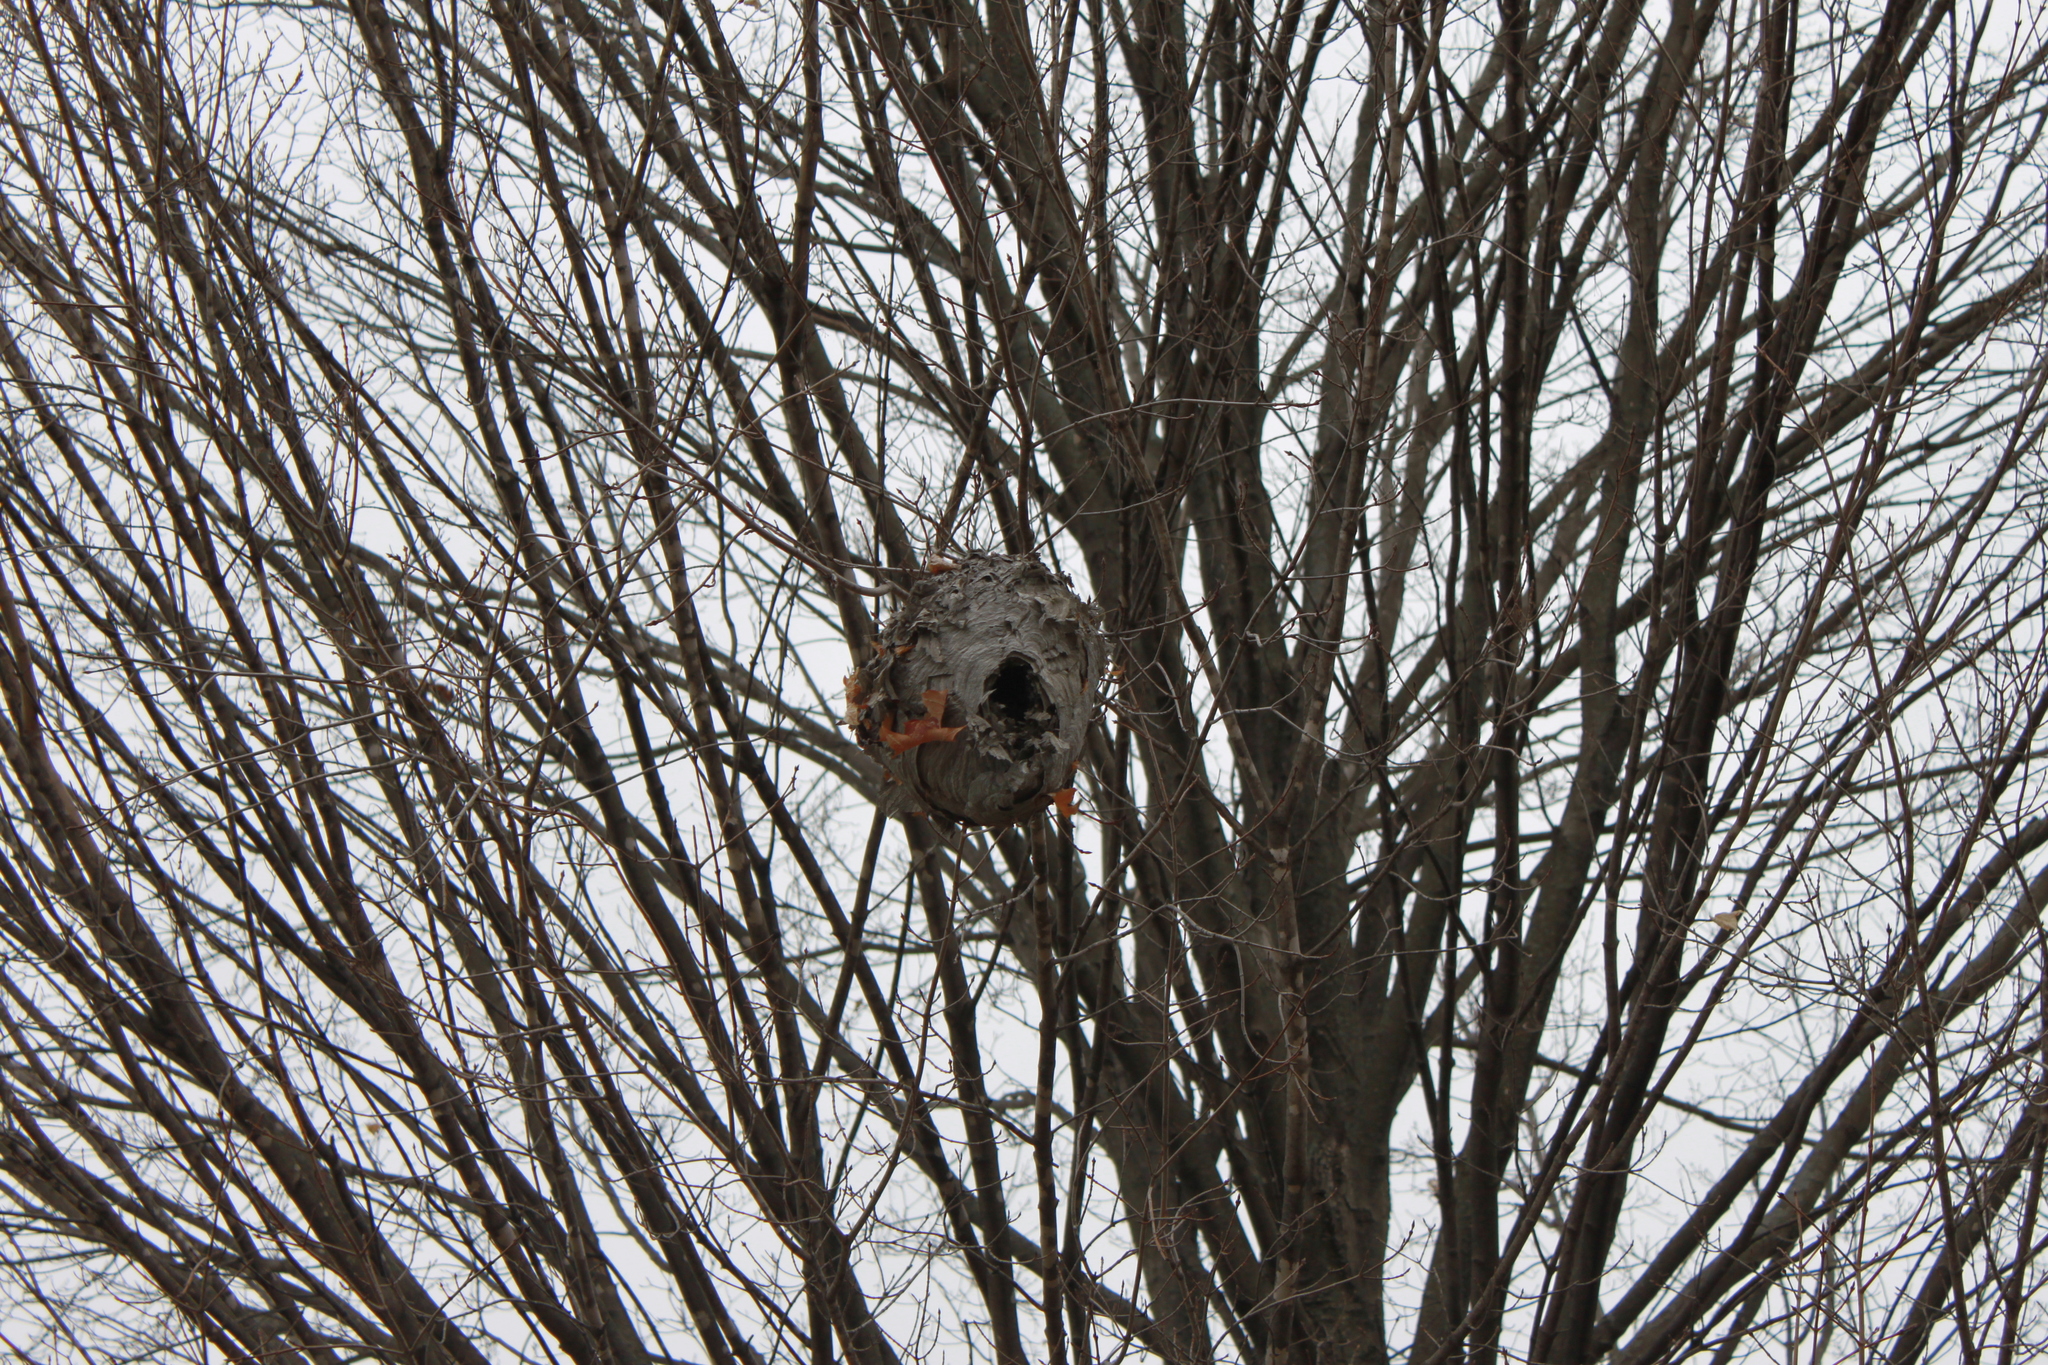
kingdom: Animalia
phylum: Arthropoda
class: Insecta
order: Hymenoptera
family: Vespidae
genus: Dolichovespula
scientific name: Dolichovespula
